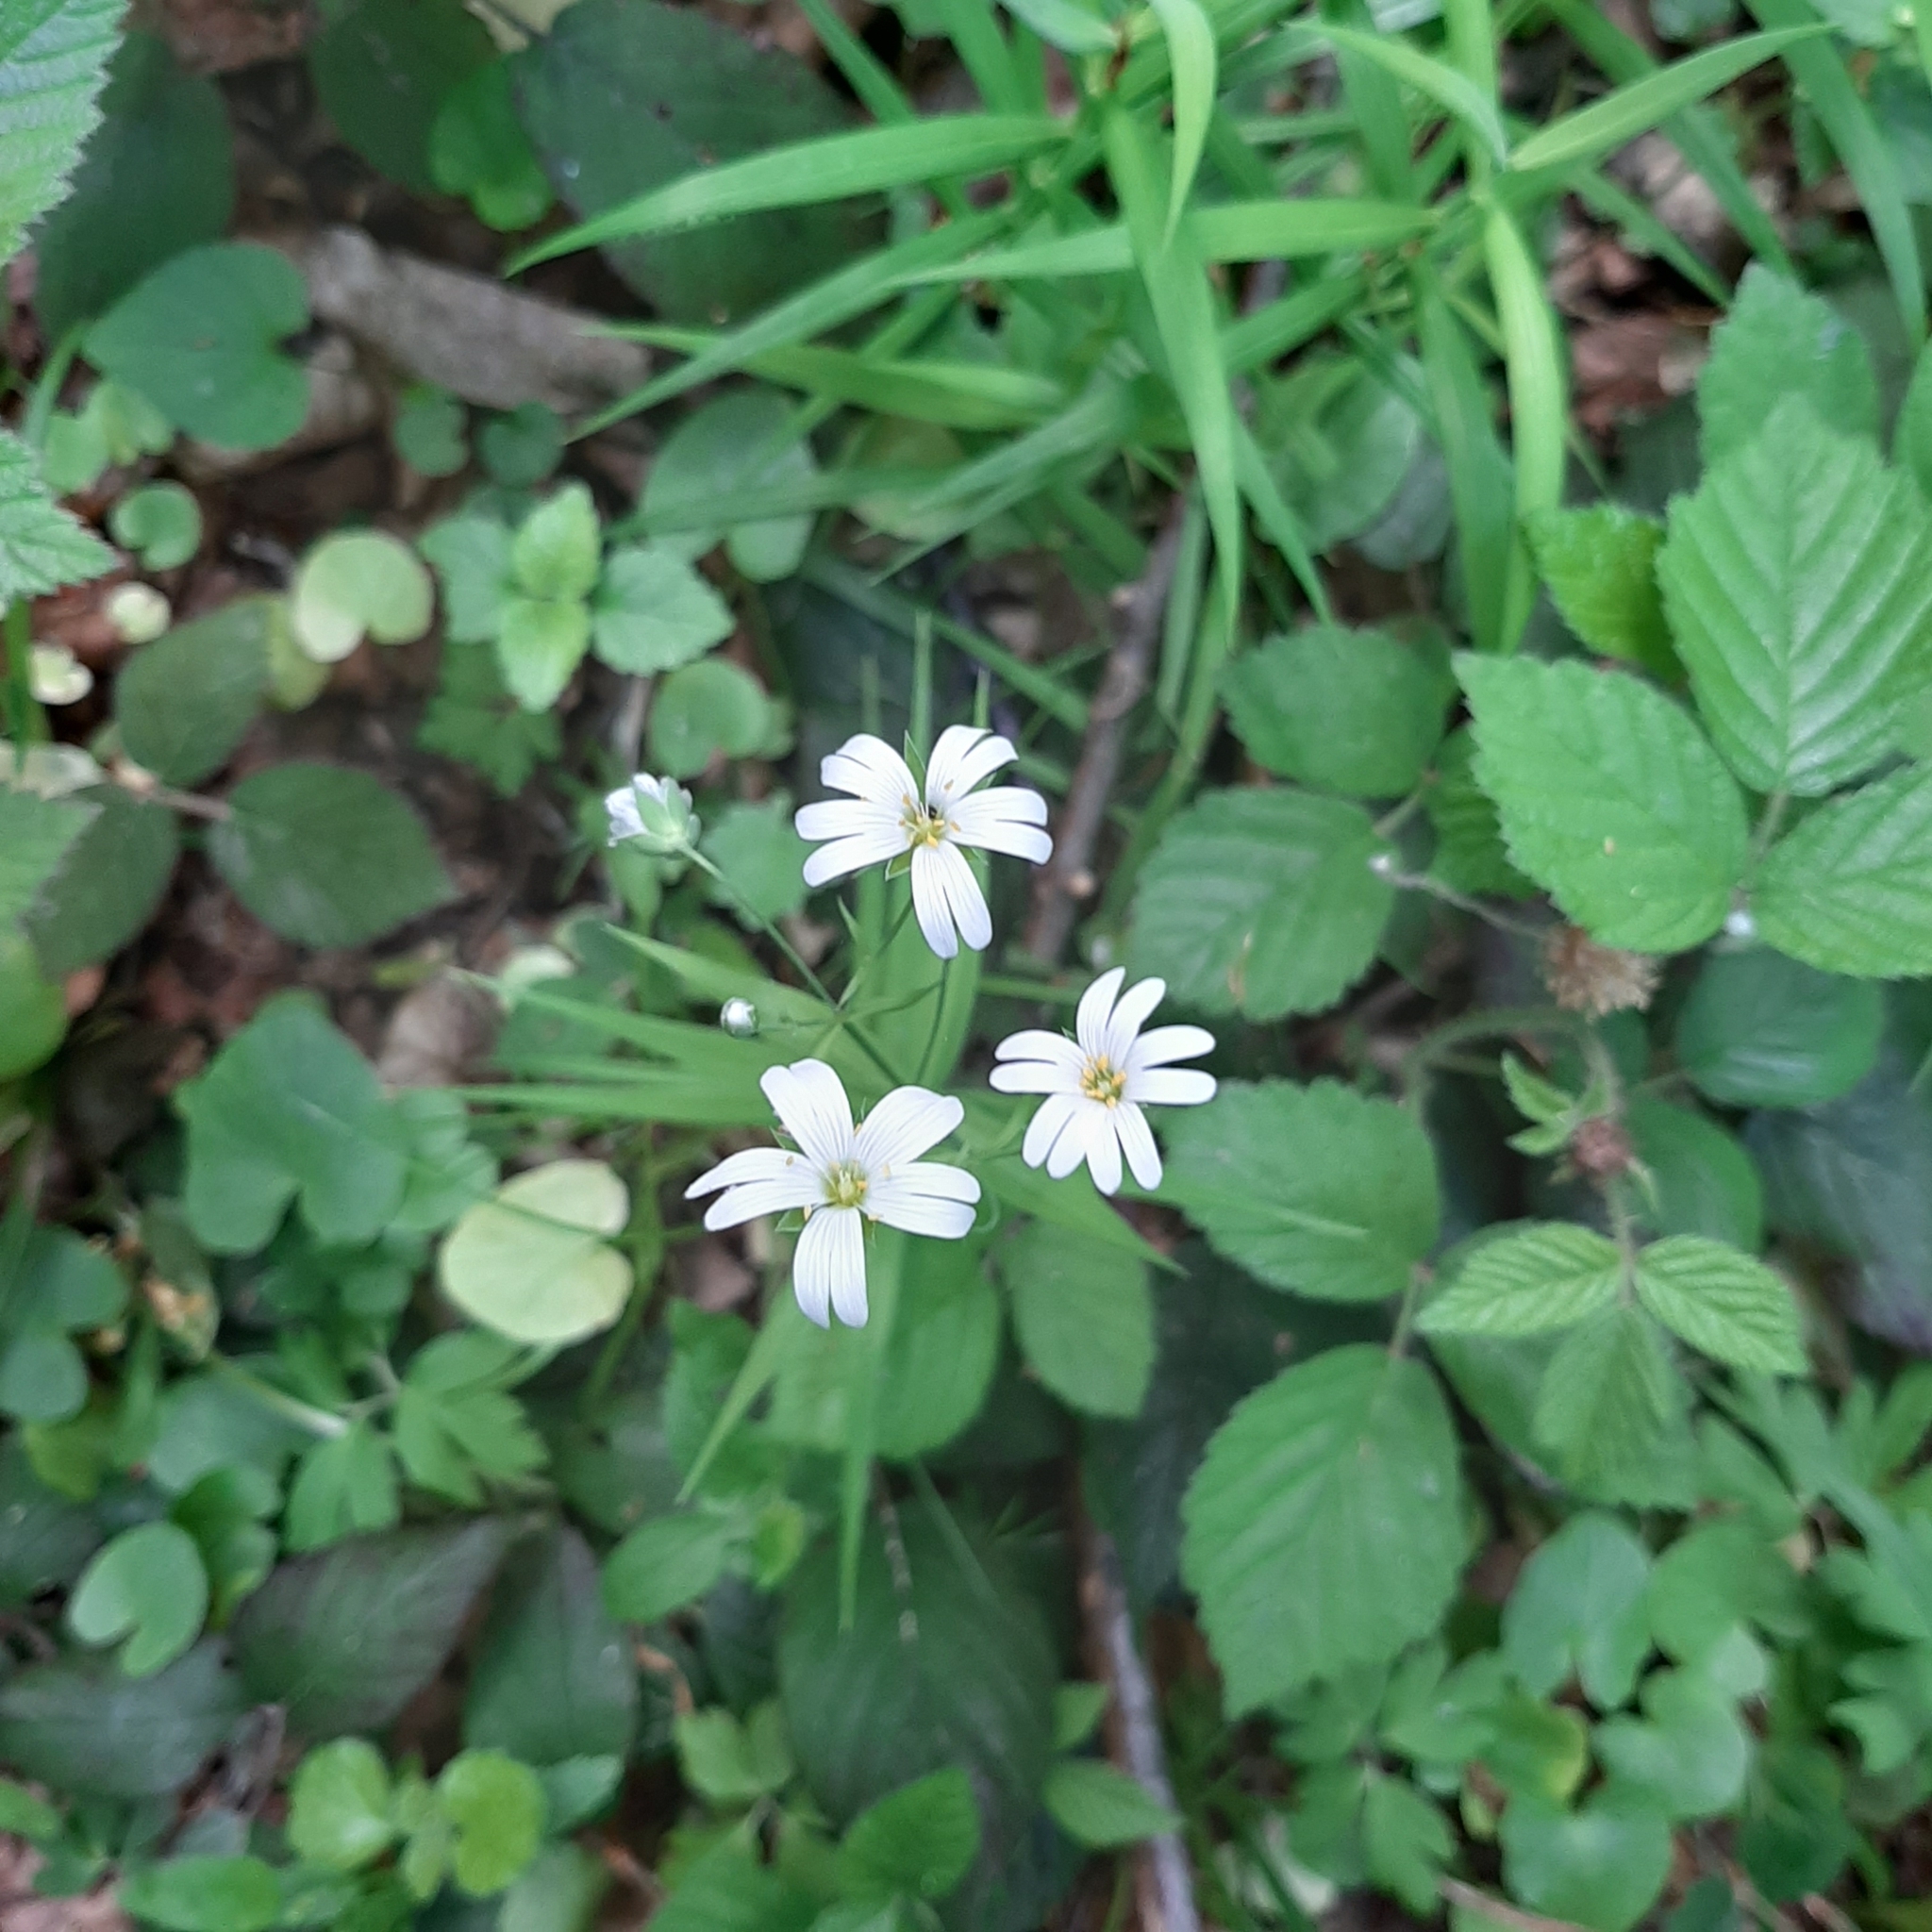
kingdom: Plantae
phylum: Tracheophyta
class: Magnoliopsida
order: Caryophyllales
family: Caryophyllaceae
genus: Rabelera
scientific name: Rabelera holostea
